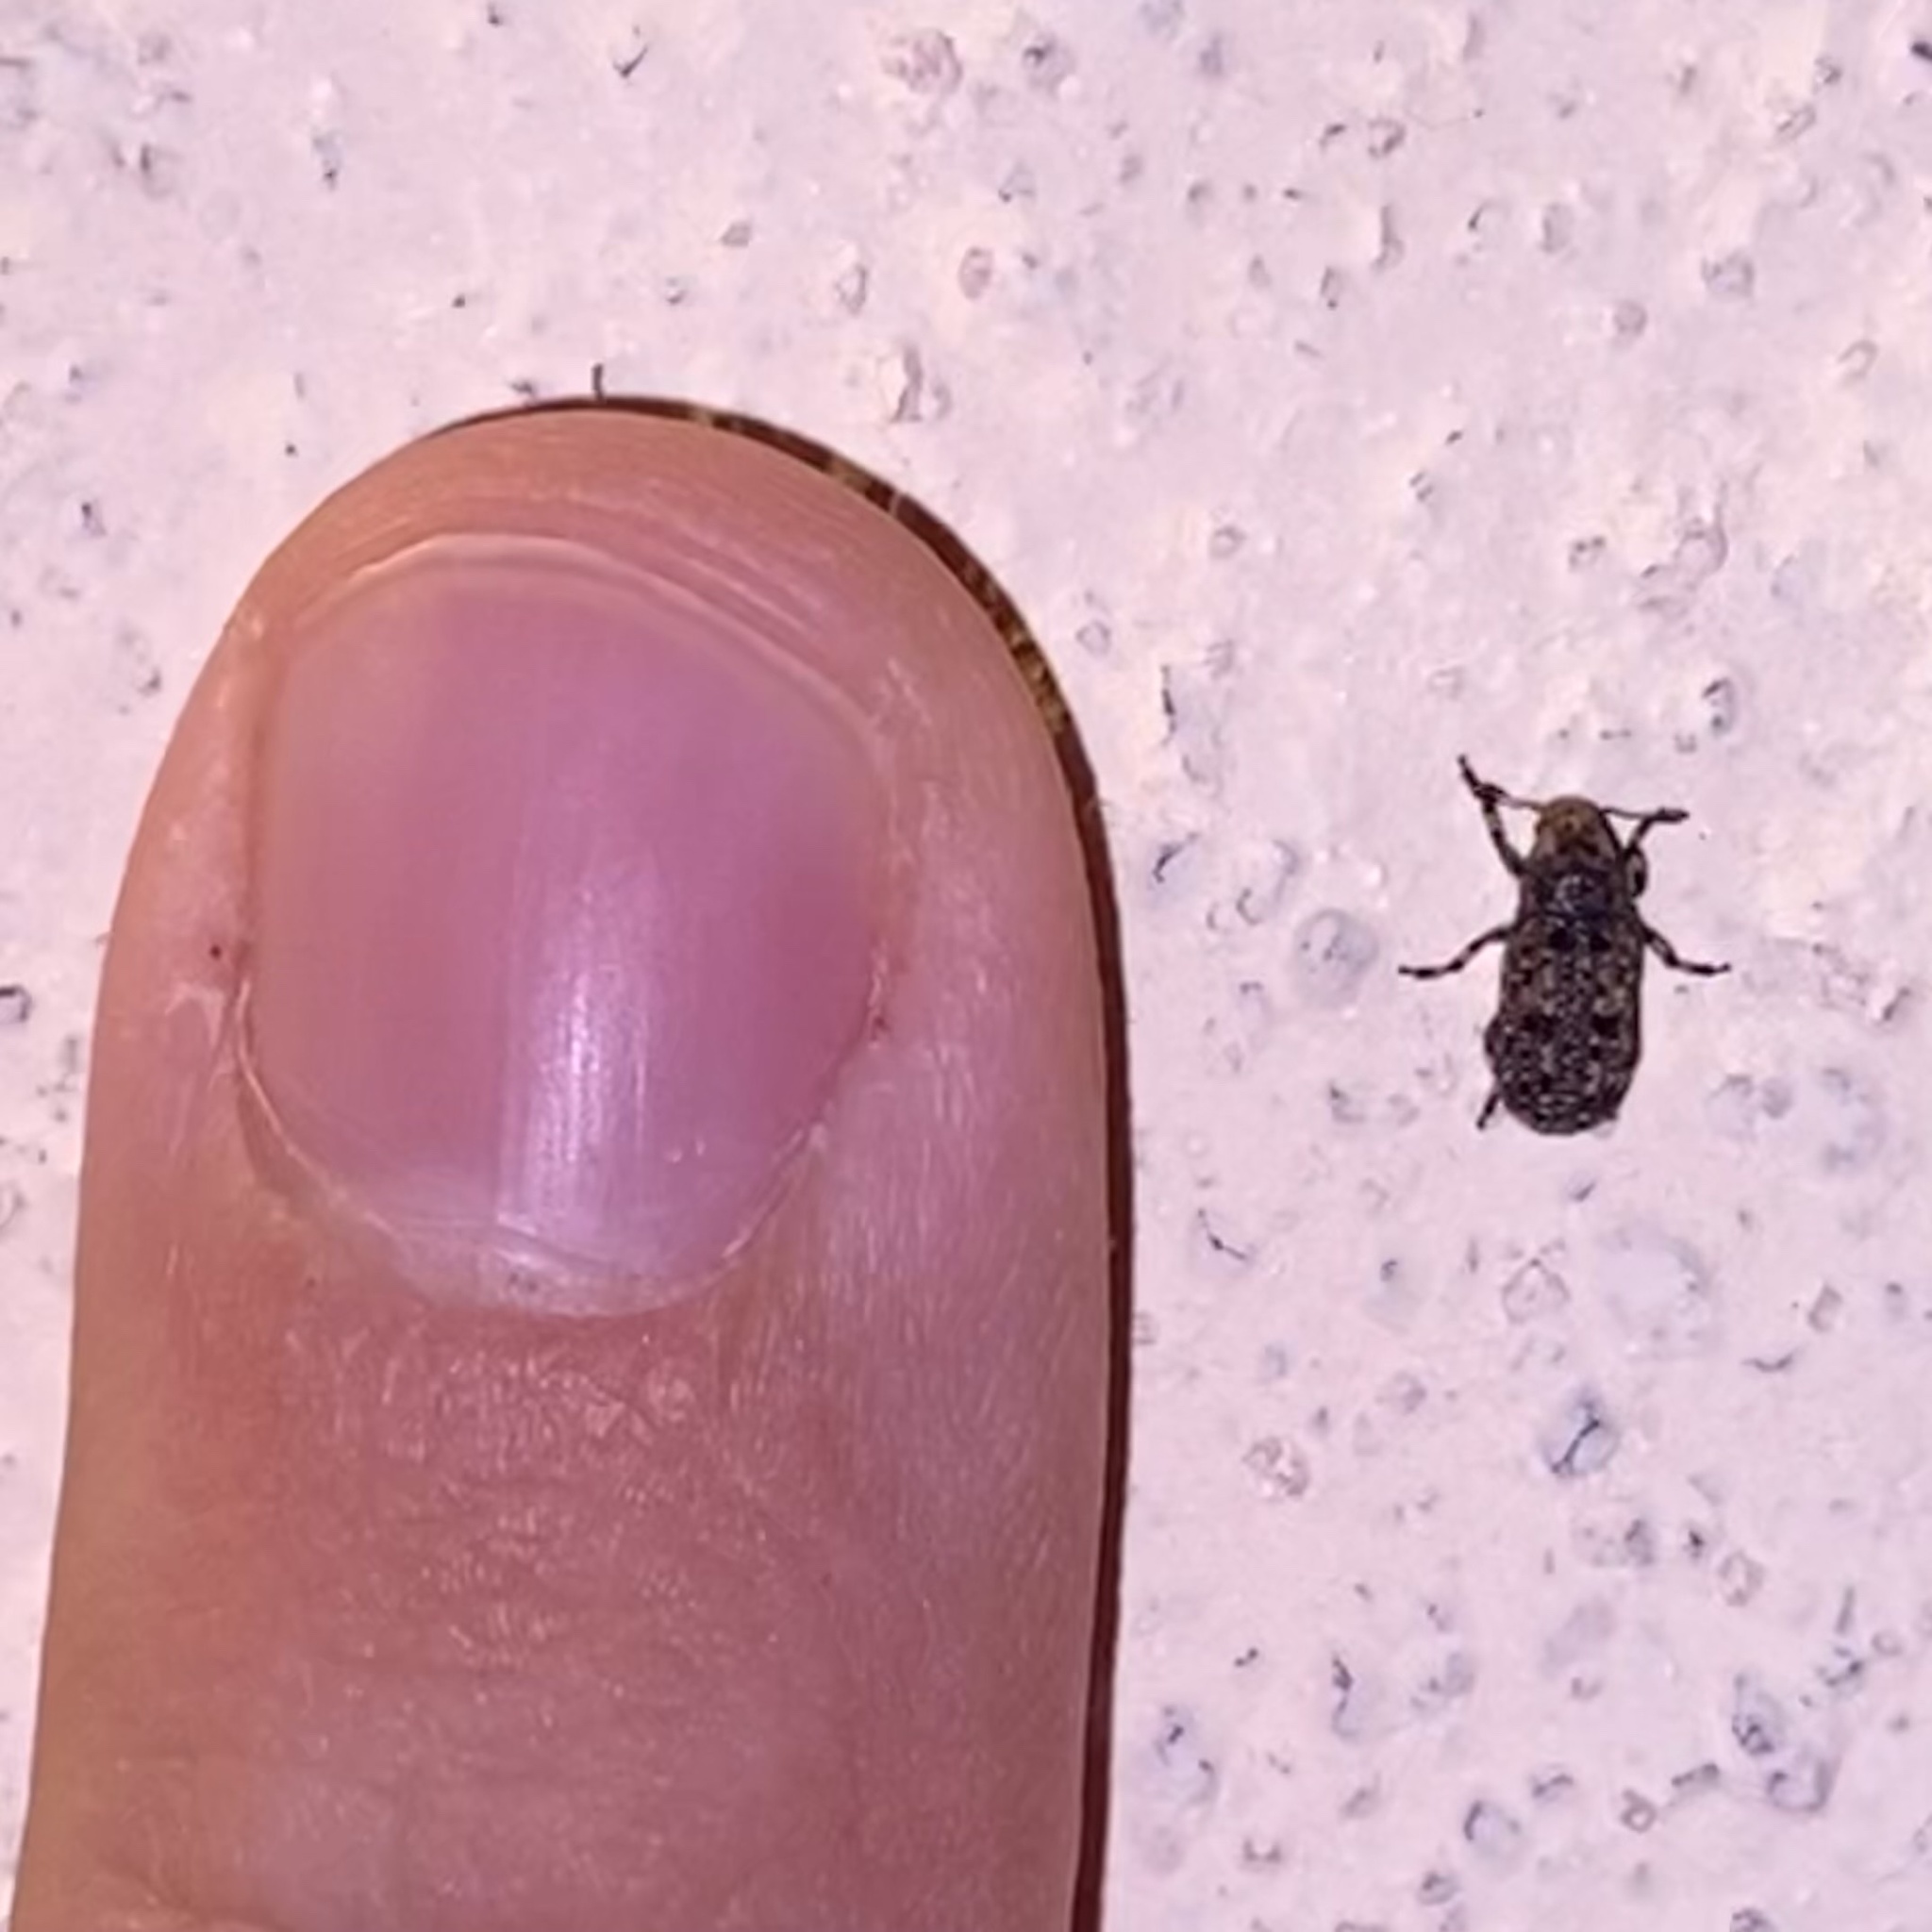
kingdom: Animalia
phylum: Arthropoda
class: Insecta
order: Coleoptera
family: Anthribidae
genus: Euparius
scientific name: Euparius subtessellatus
